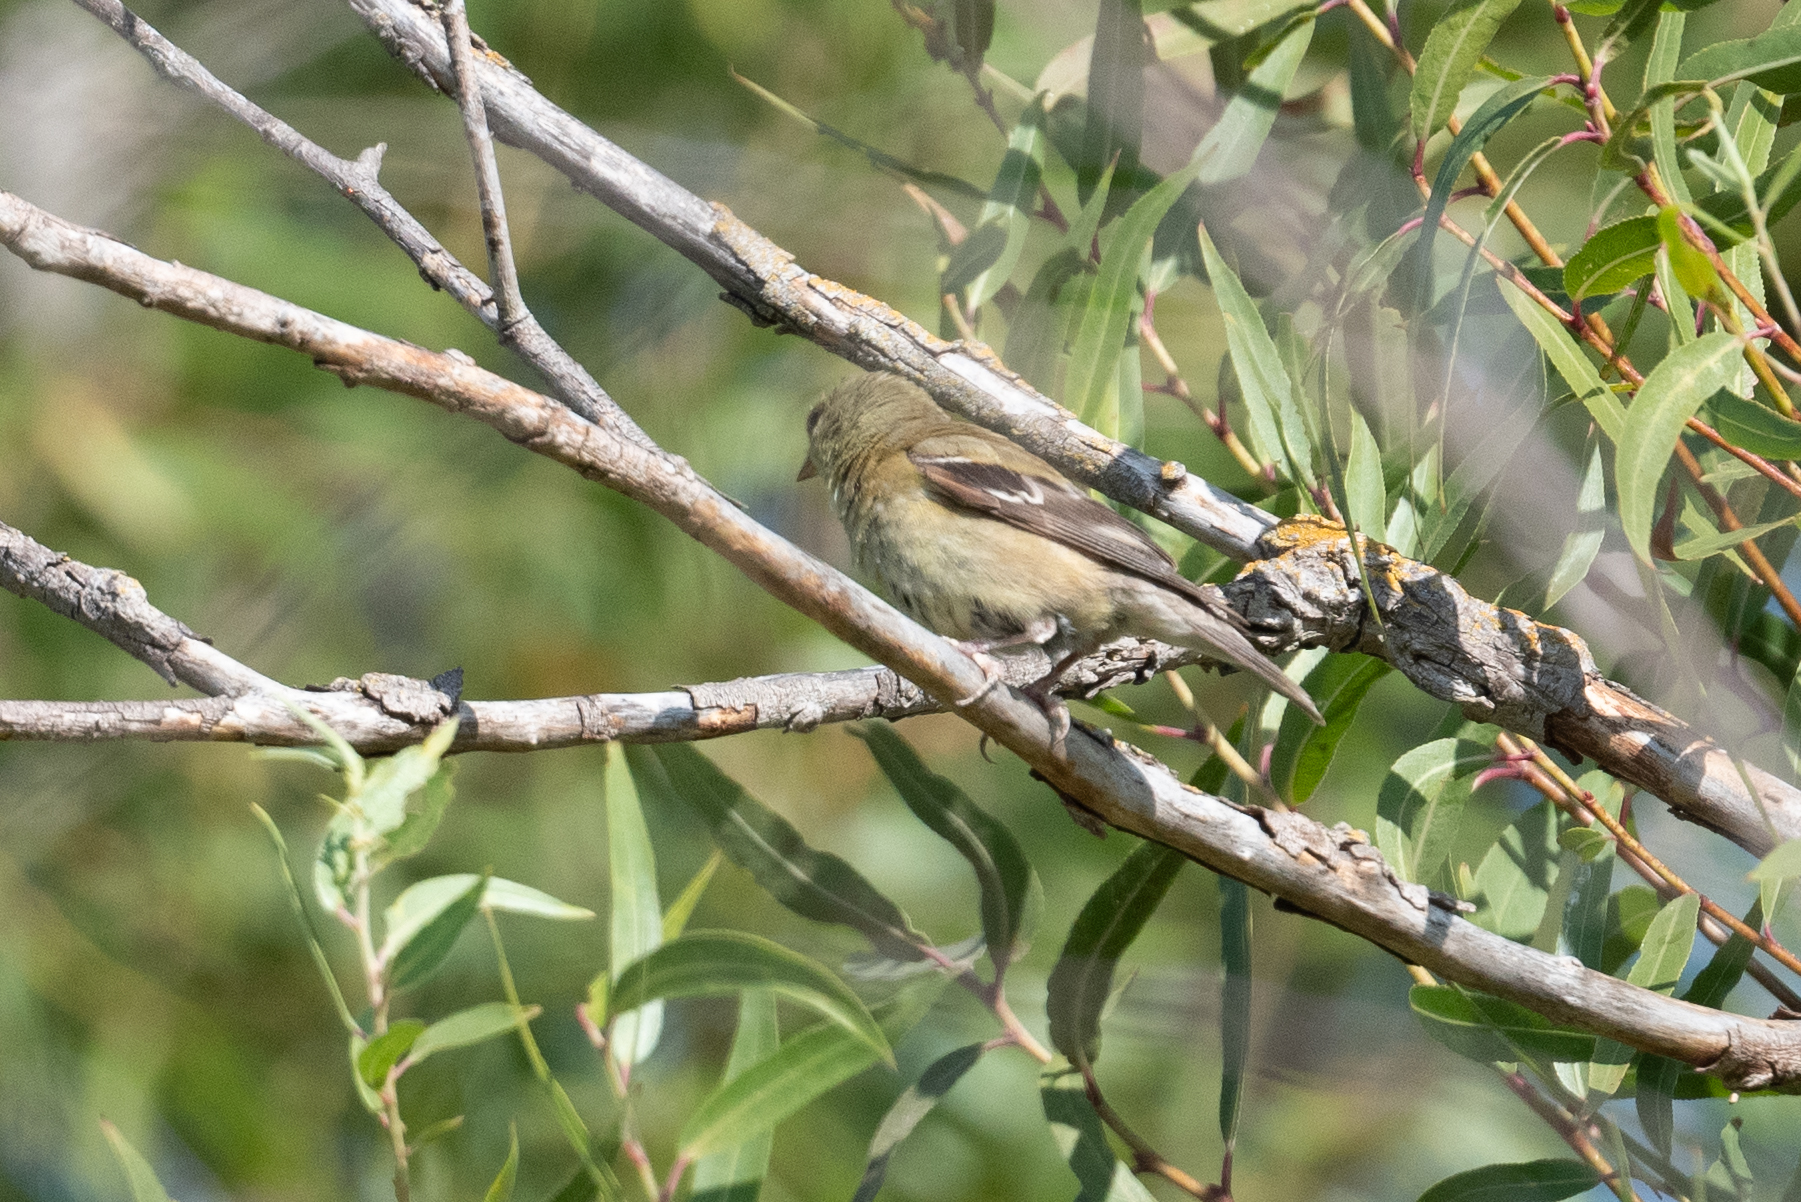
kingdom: Animalia
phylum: Chordata
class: Aves
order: Passeriformes
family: Fringillidae
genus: Spinus
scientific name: Spinus tristis
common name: American goldfinch
